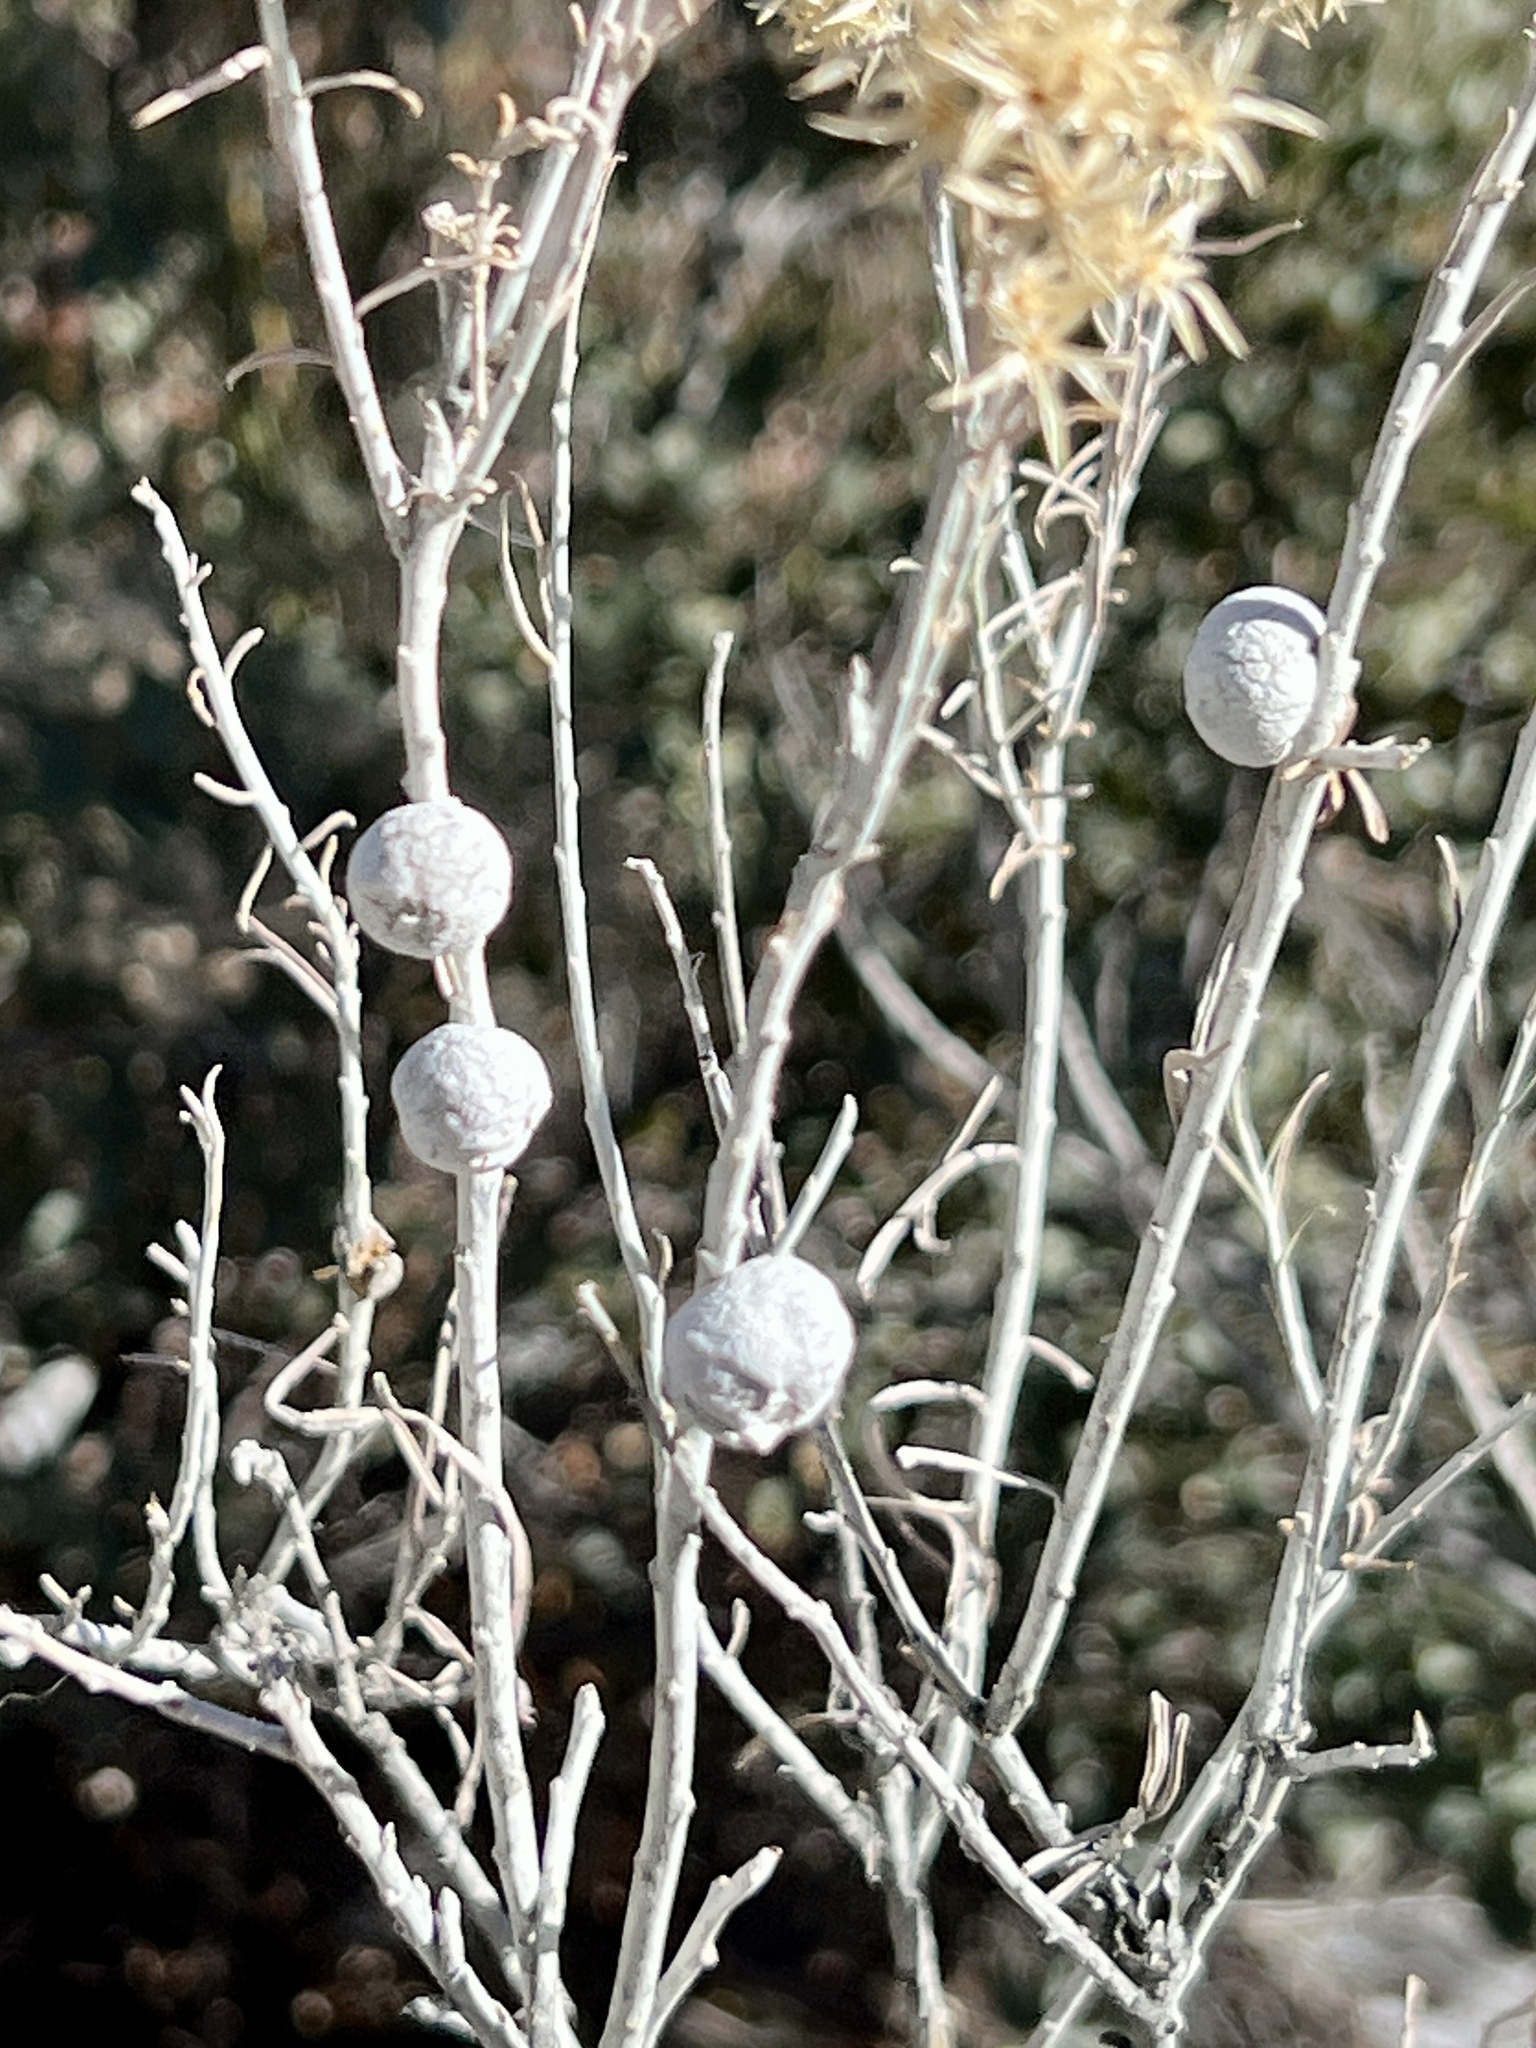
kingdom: Animalia
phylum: Arthropoda
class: Insecta
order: Diptera
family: Tephritidae
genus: Aciurina
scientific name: Aciurina trixa
